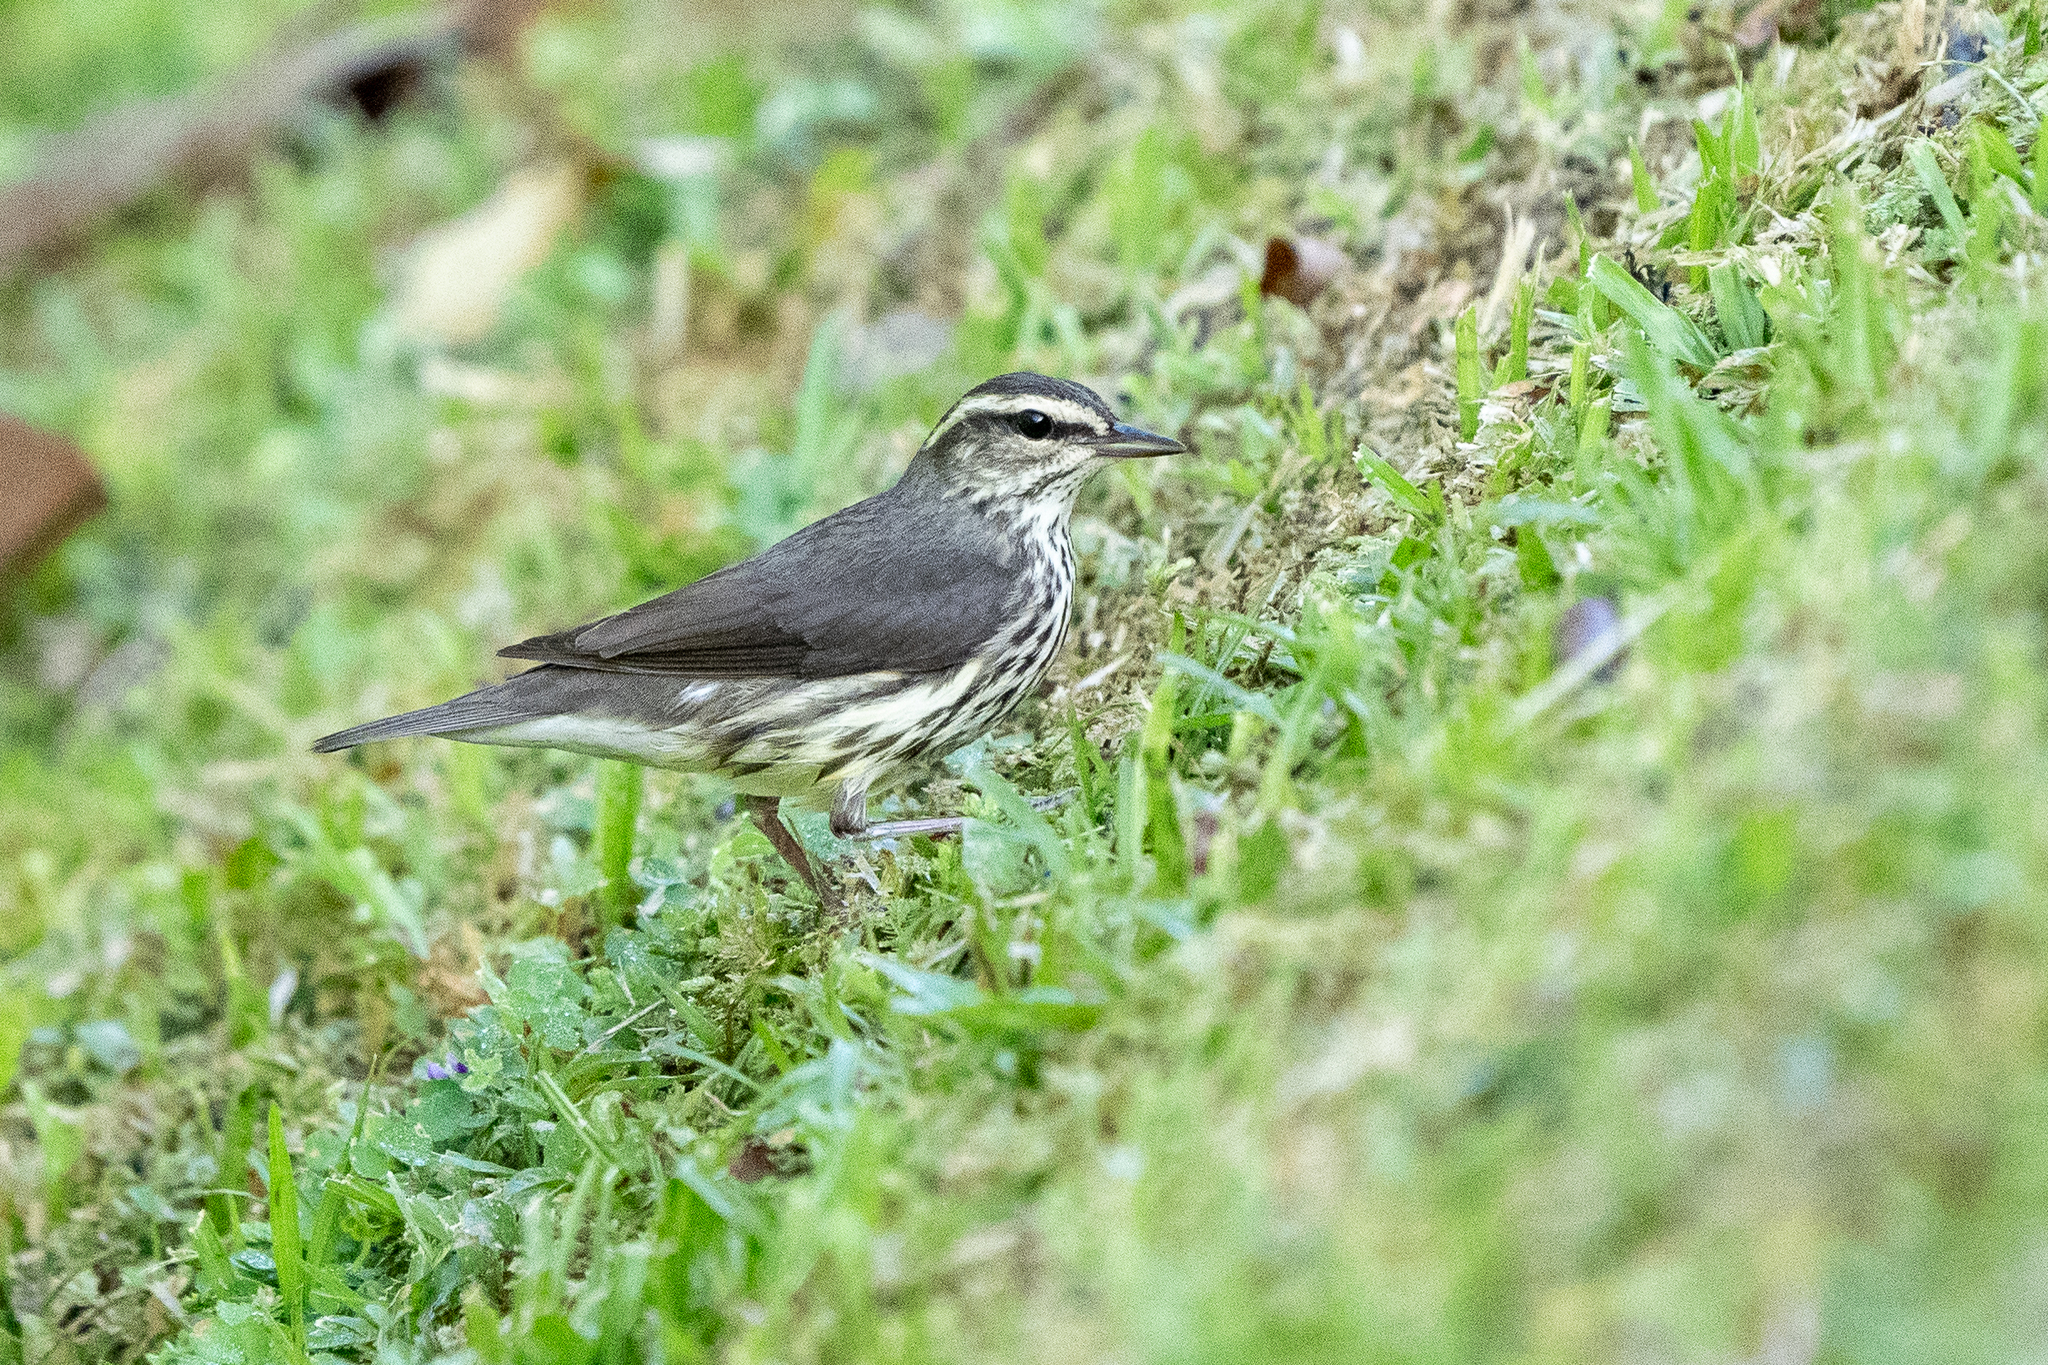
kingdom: Animalia
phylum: Chordata
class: Aves
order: Passeriformes
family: Parulidae
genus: Parkesia
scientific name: Parkesia noveboracensis
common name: Northern waterthrush
